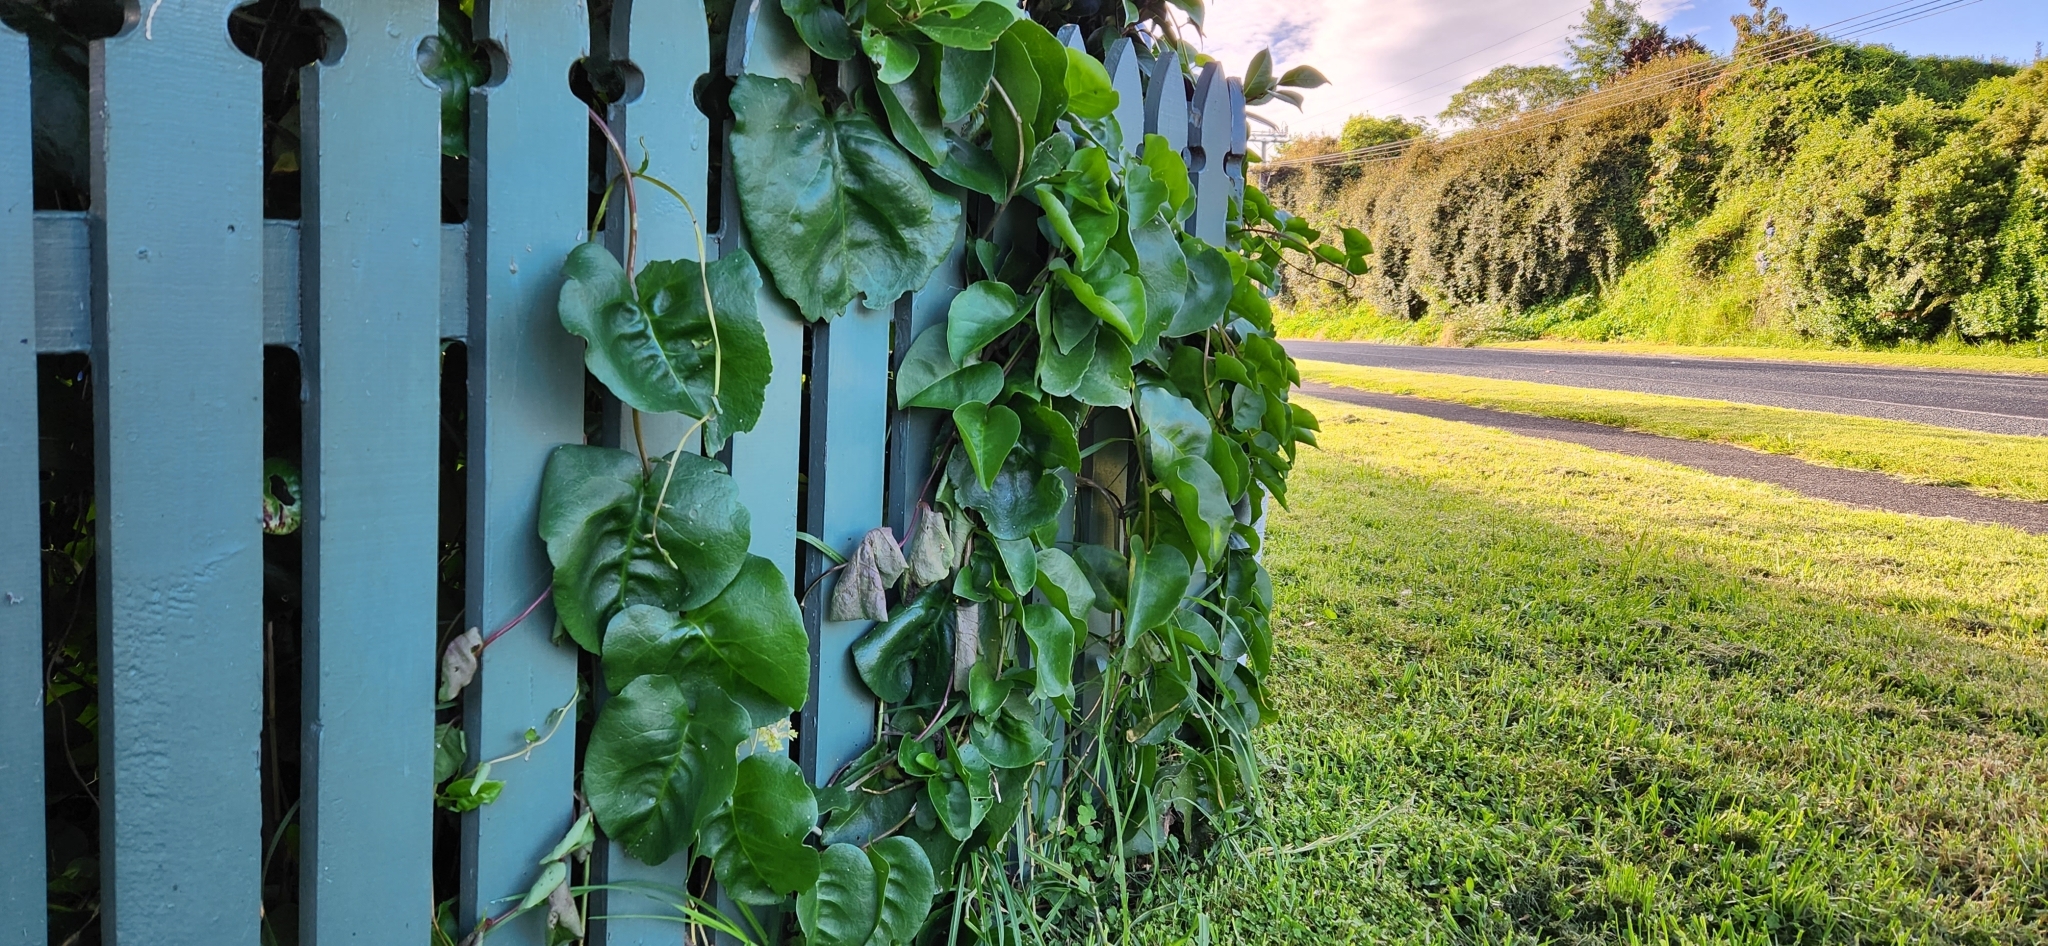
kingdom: Plantae
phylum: Tracheophyta
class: Magnoliopsida
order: Caryophyllales
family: Basellaceae
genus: Anredera
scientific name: Anredera cordifolia
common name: Heartleaf madeiravine
